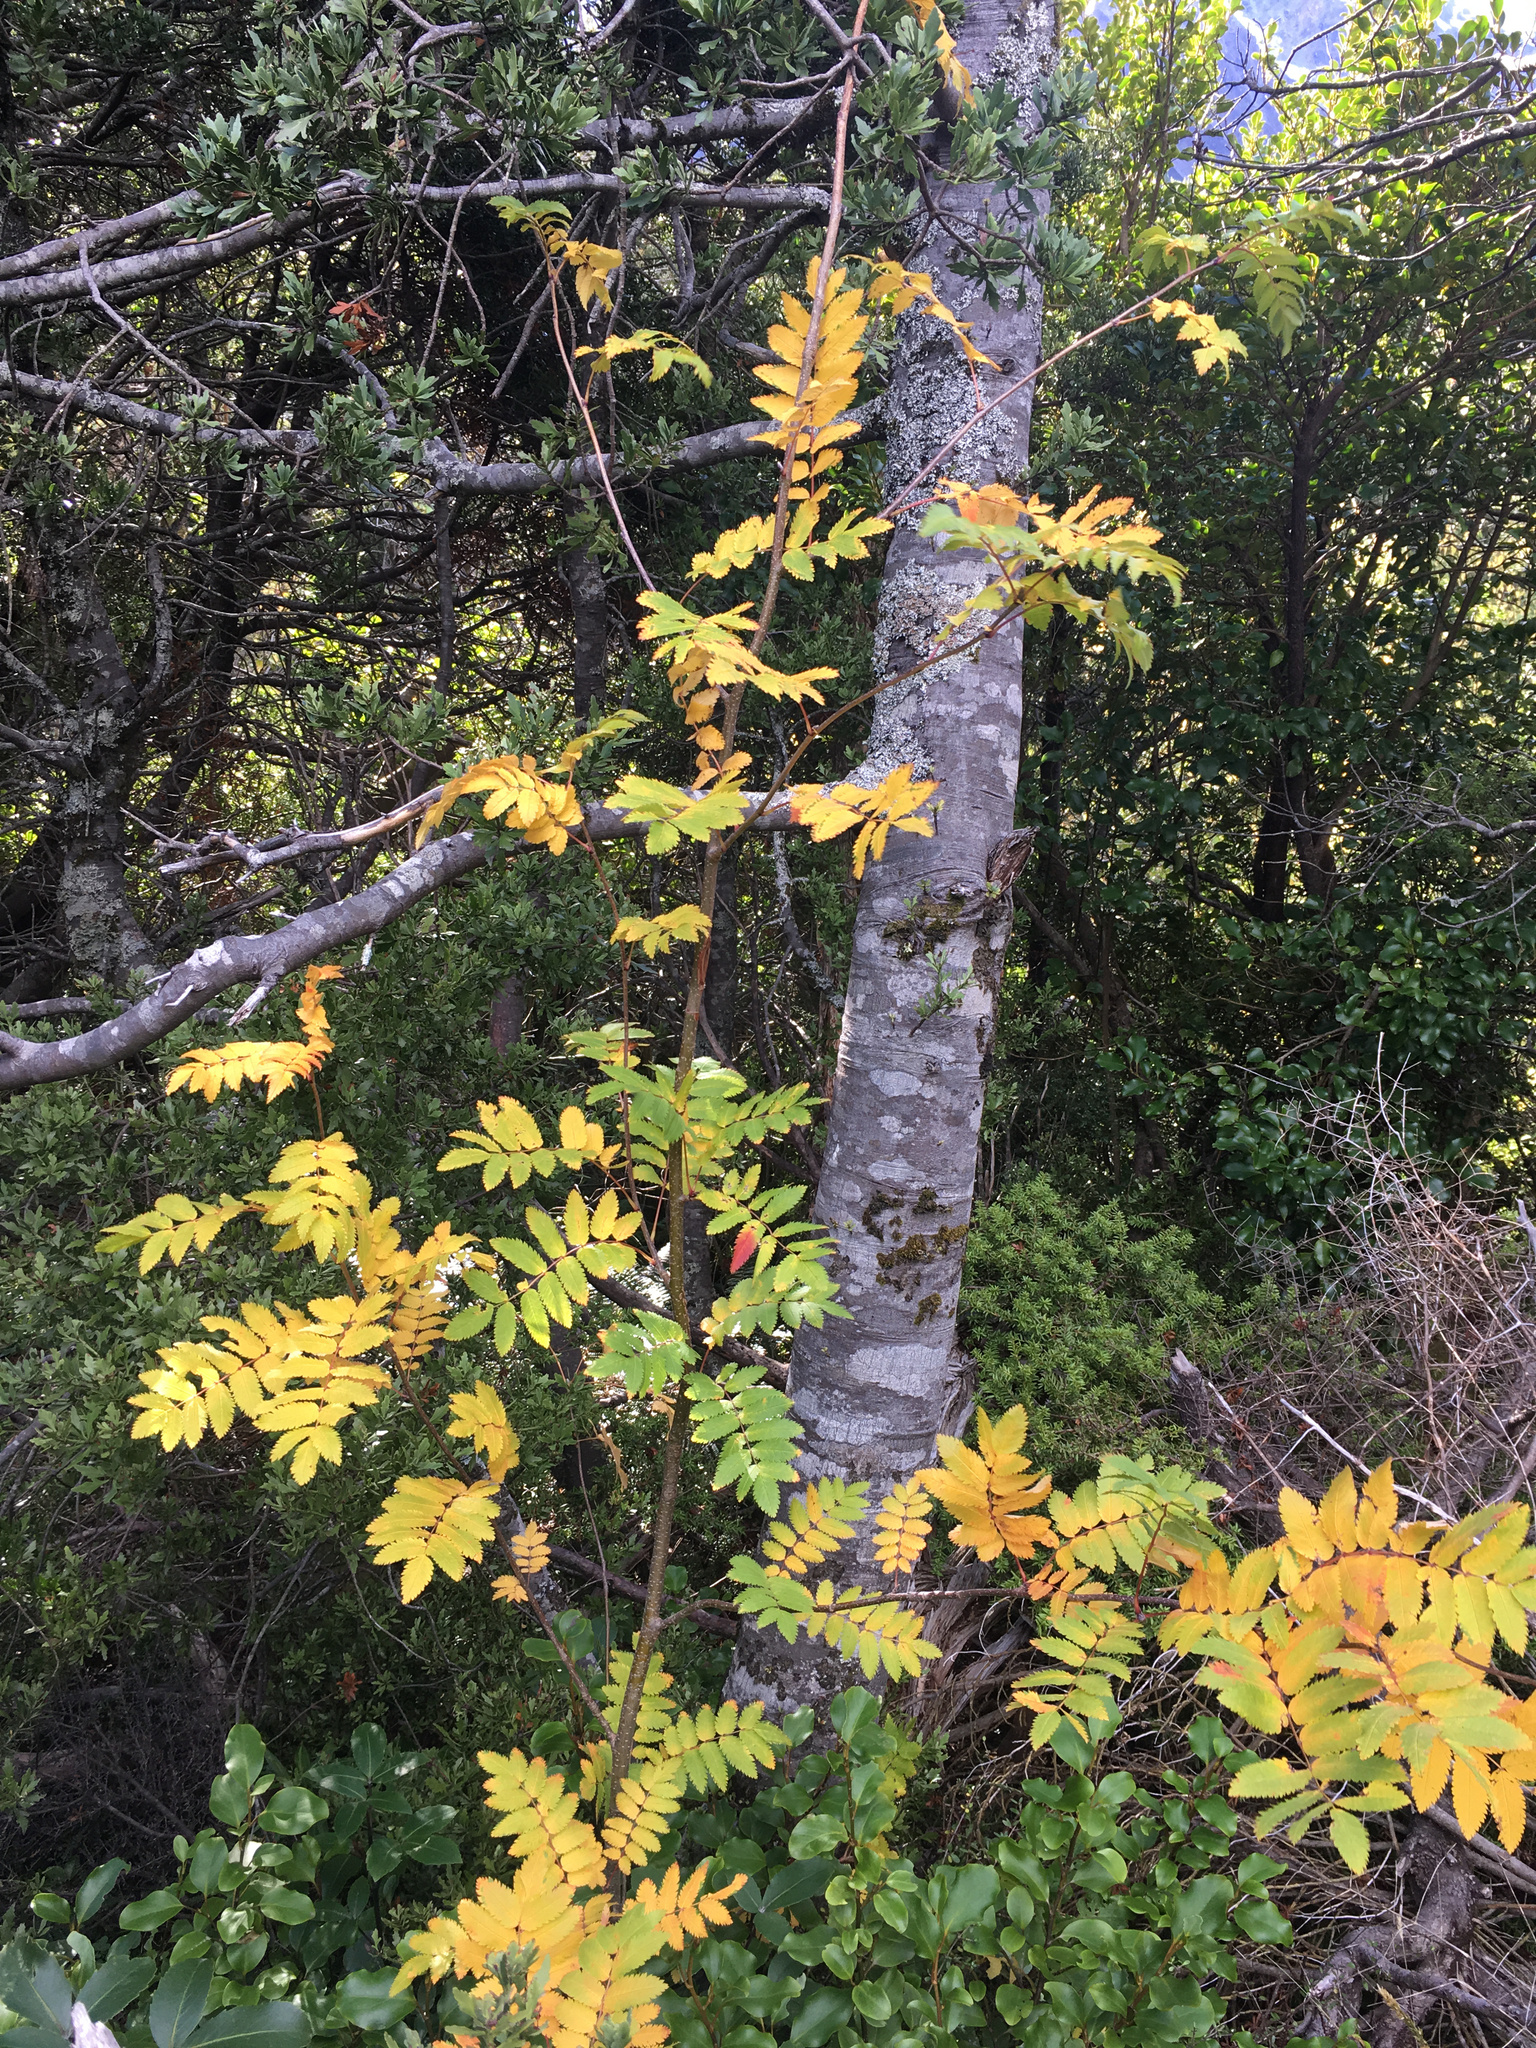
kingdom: Plantae
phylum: Tracheophyta
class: Magnoliopsida
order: Rosales
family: Rosaceae
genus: Sorbus
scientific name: Sorbus aucuparia
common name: Rowan
